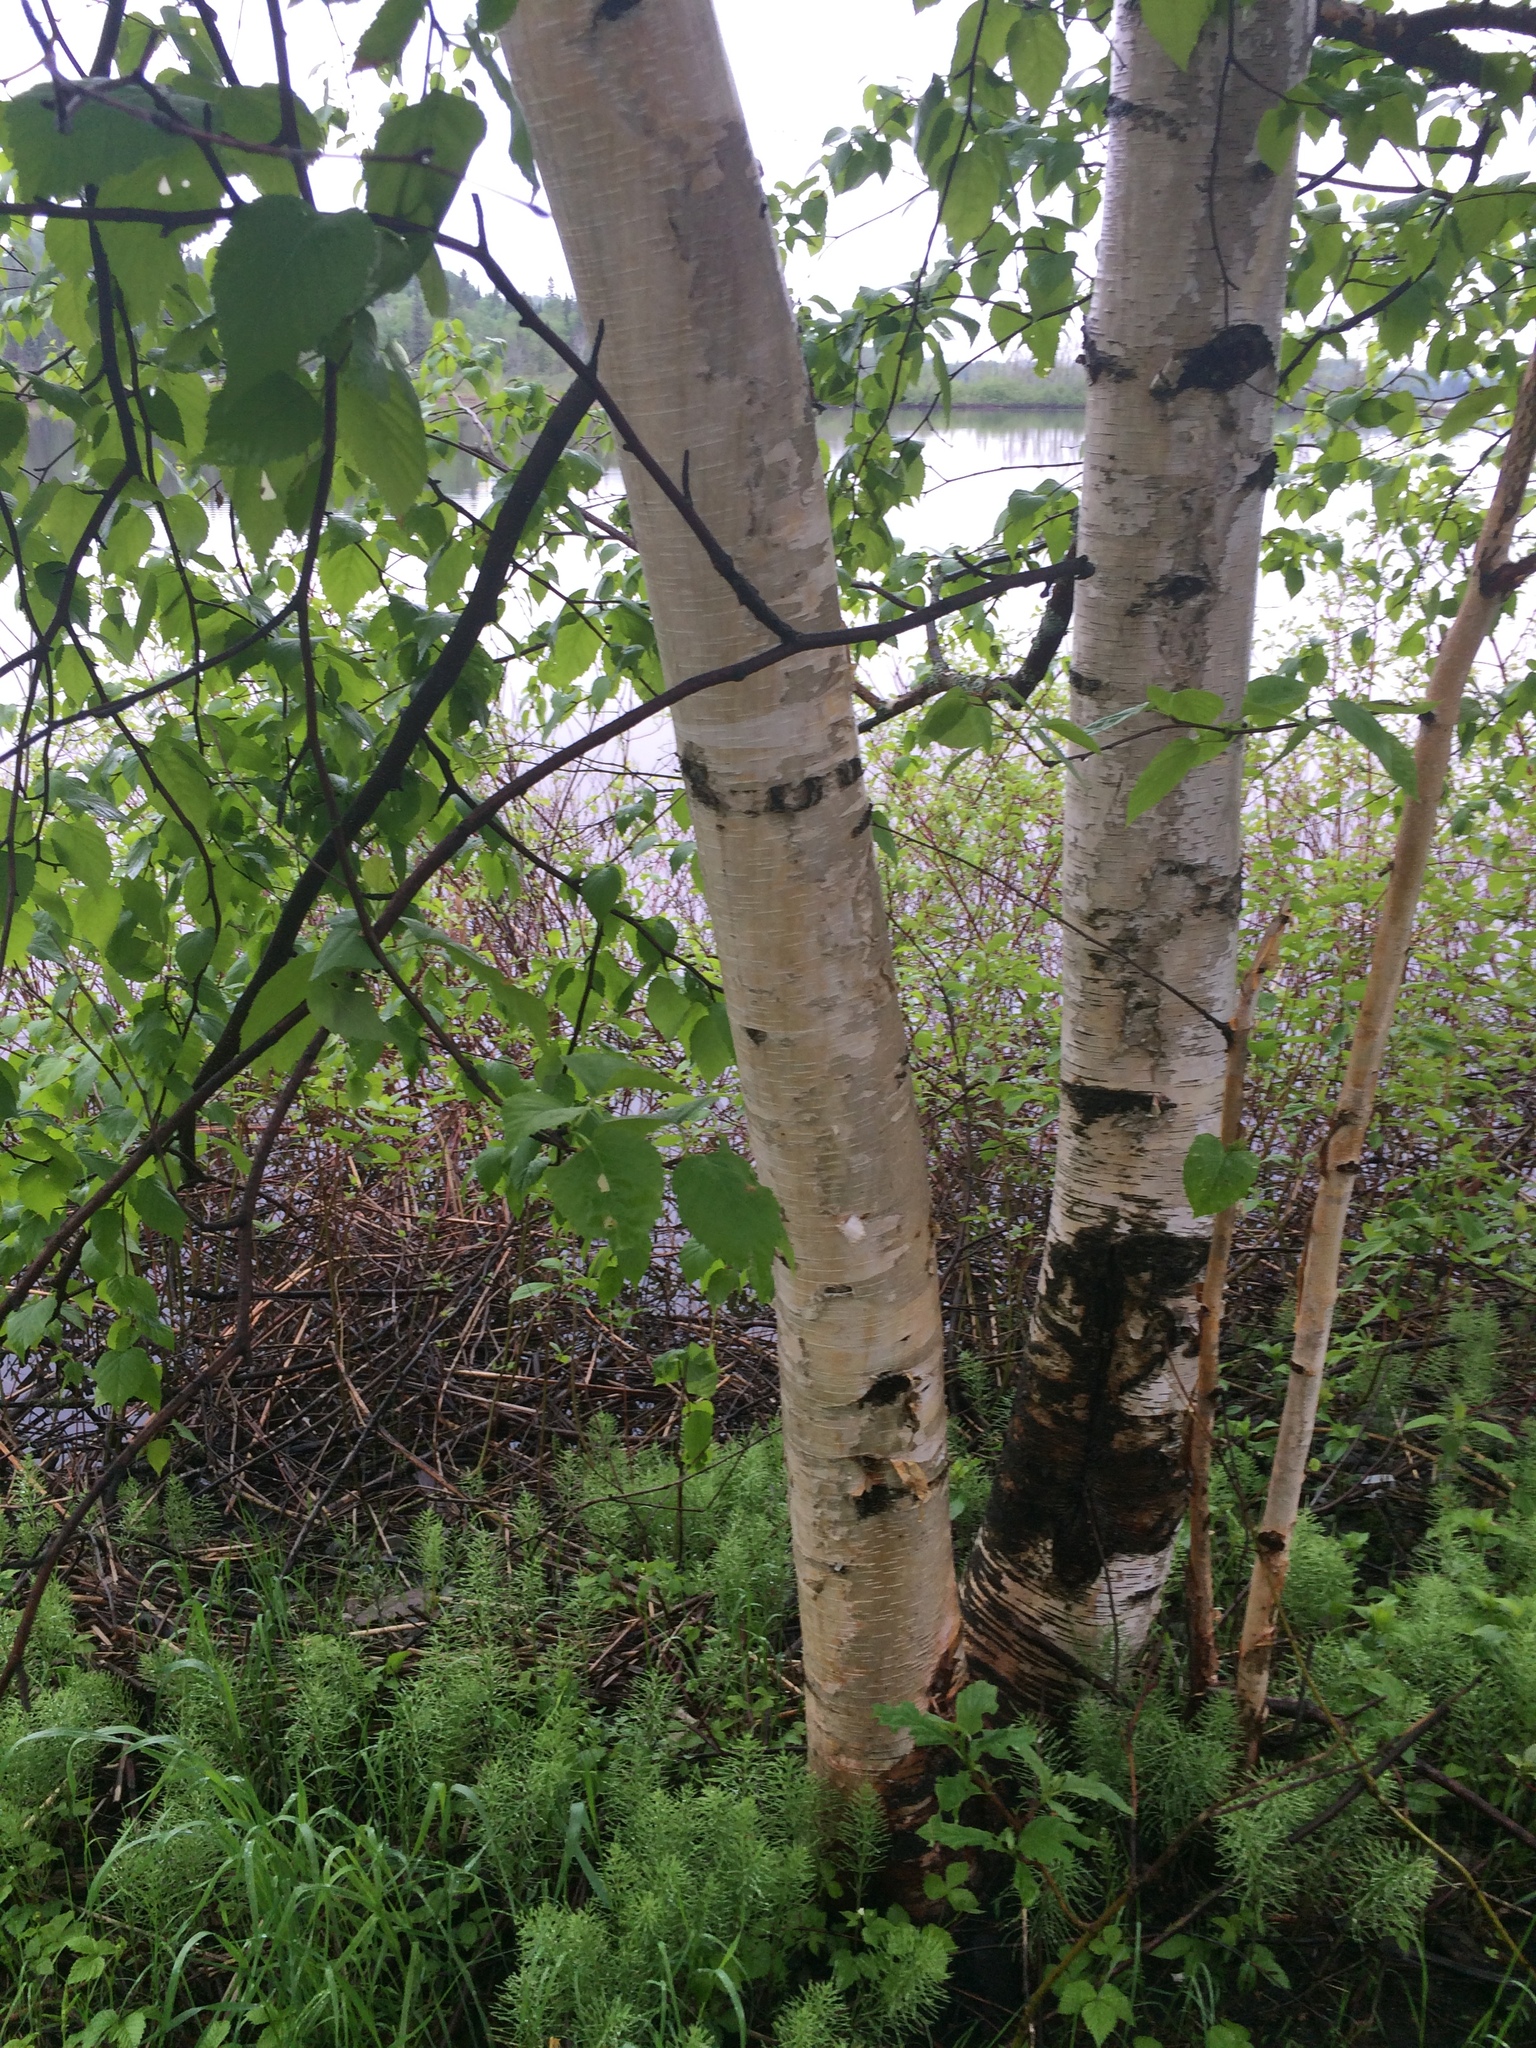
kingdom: Plantae
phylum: Tracheophyta
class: Magnoliopsida
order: Fagales
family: Betulaceae
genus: Betula
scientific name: Betula papyrifera
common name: Paper birch
